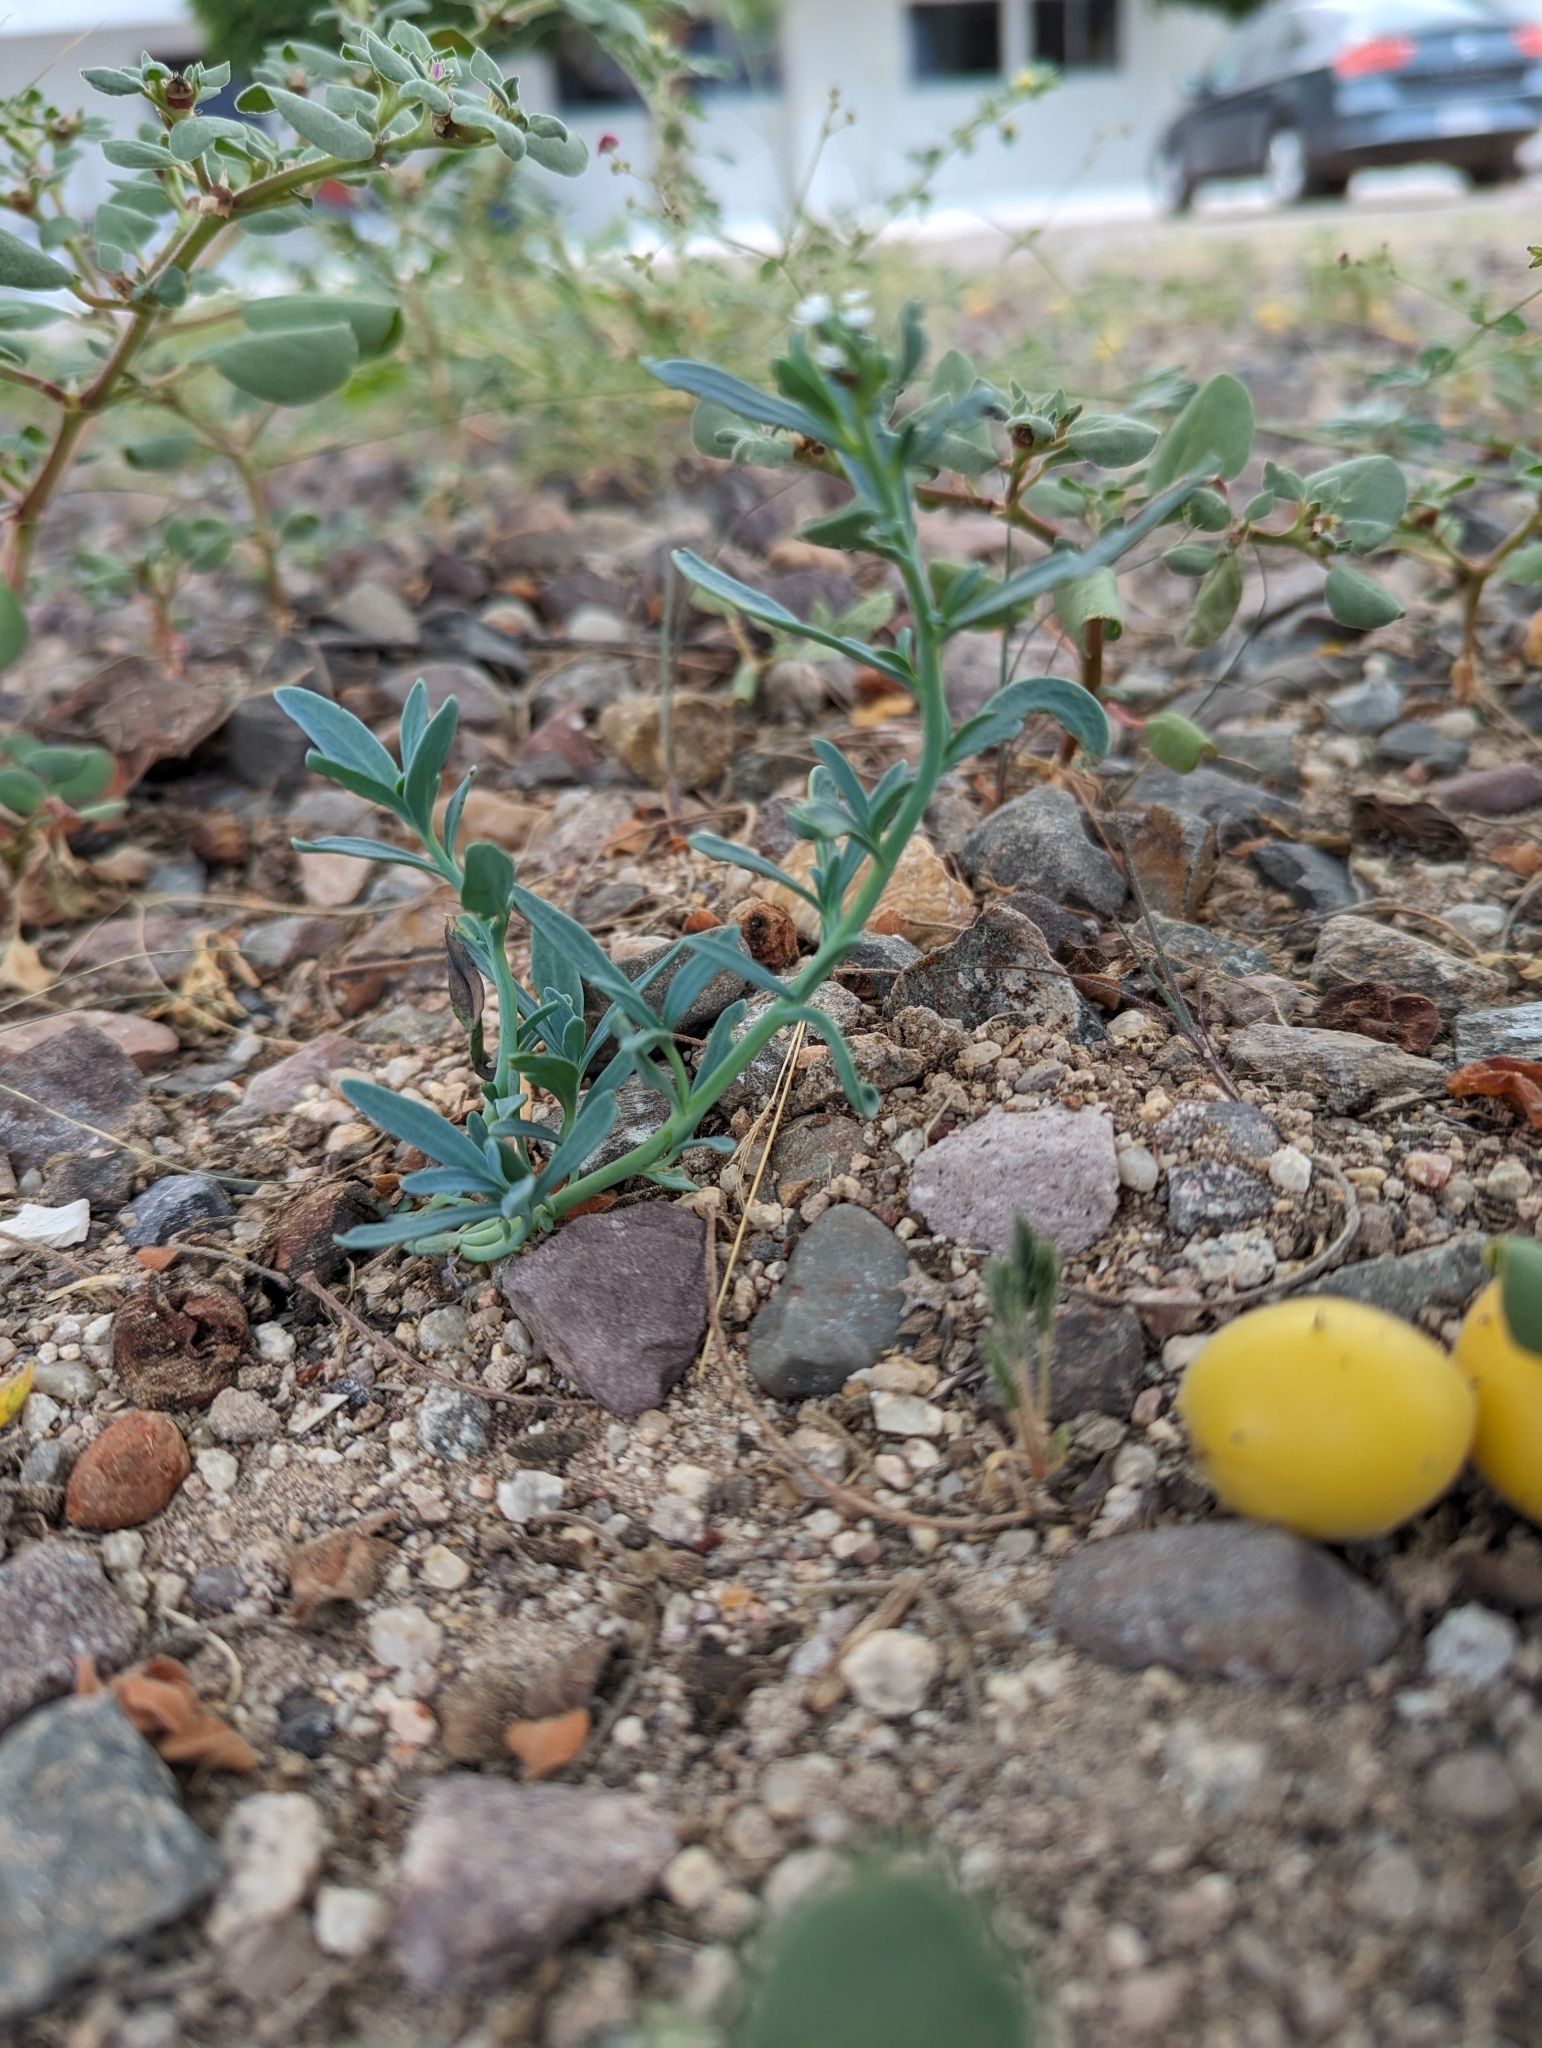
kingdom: Plantae
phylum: Tracheophyta
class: Magnoliopsida
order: Boraginales
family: Heliotropiaceae
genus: Heliotropium
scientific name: Heliotropium curassavicum
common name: Seaside heliotrope
